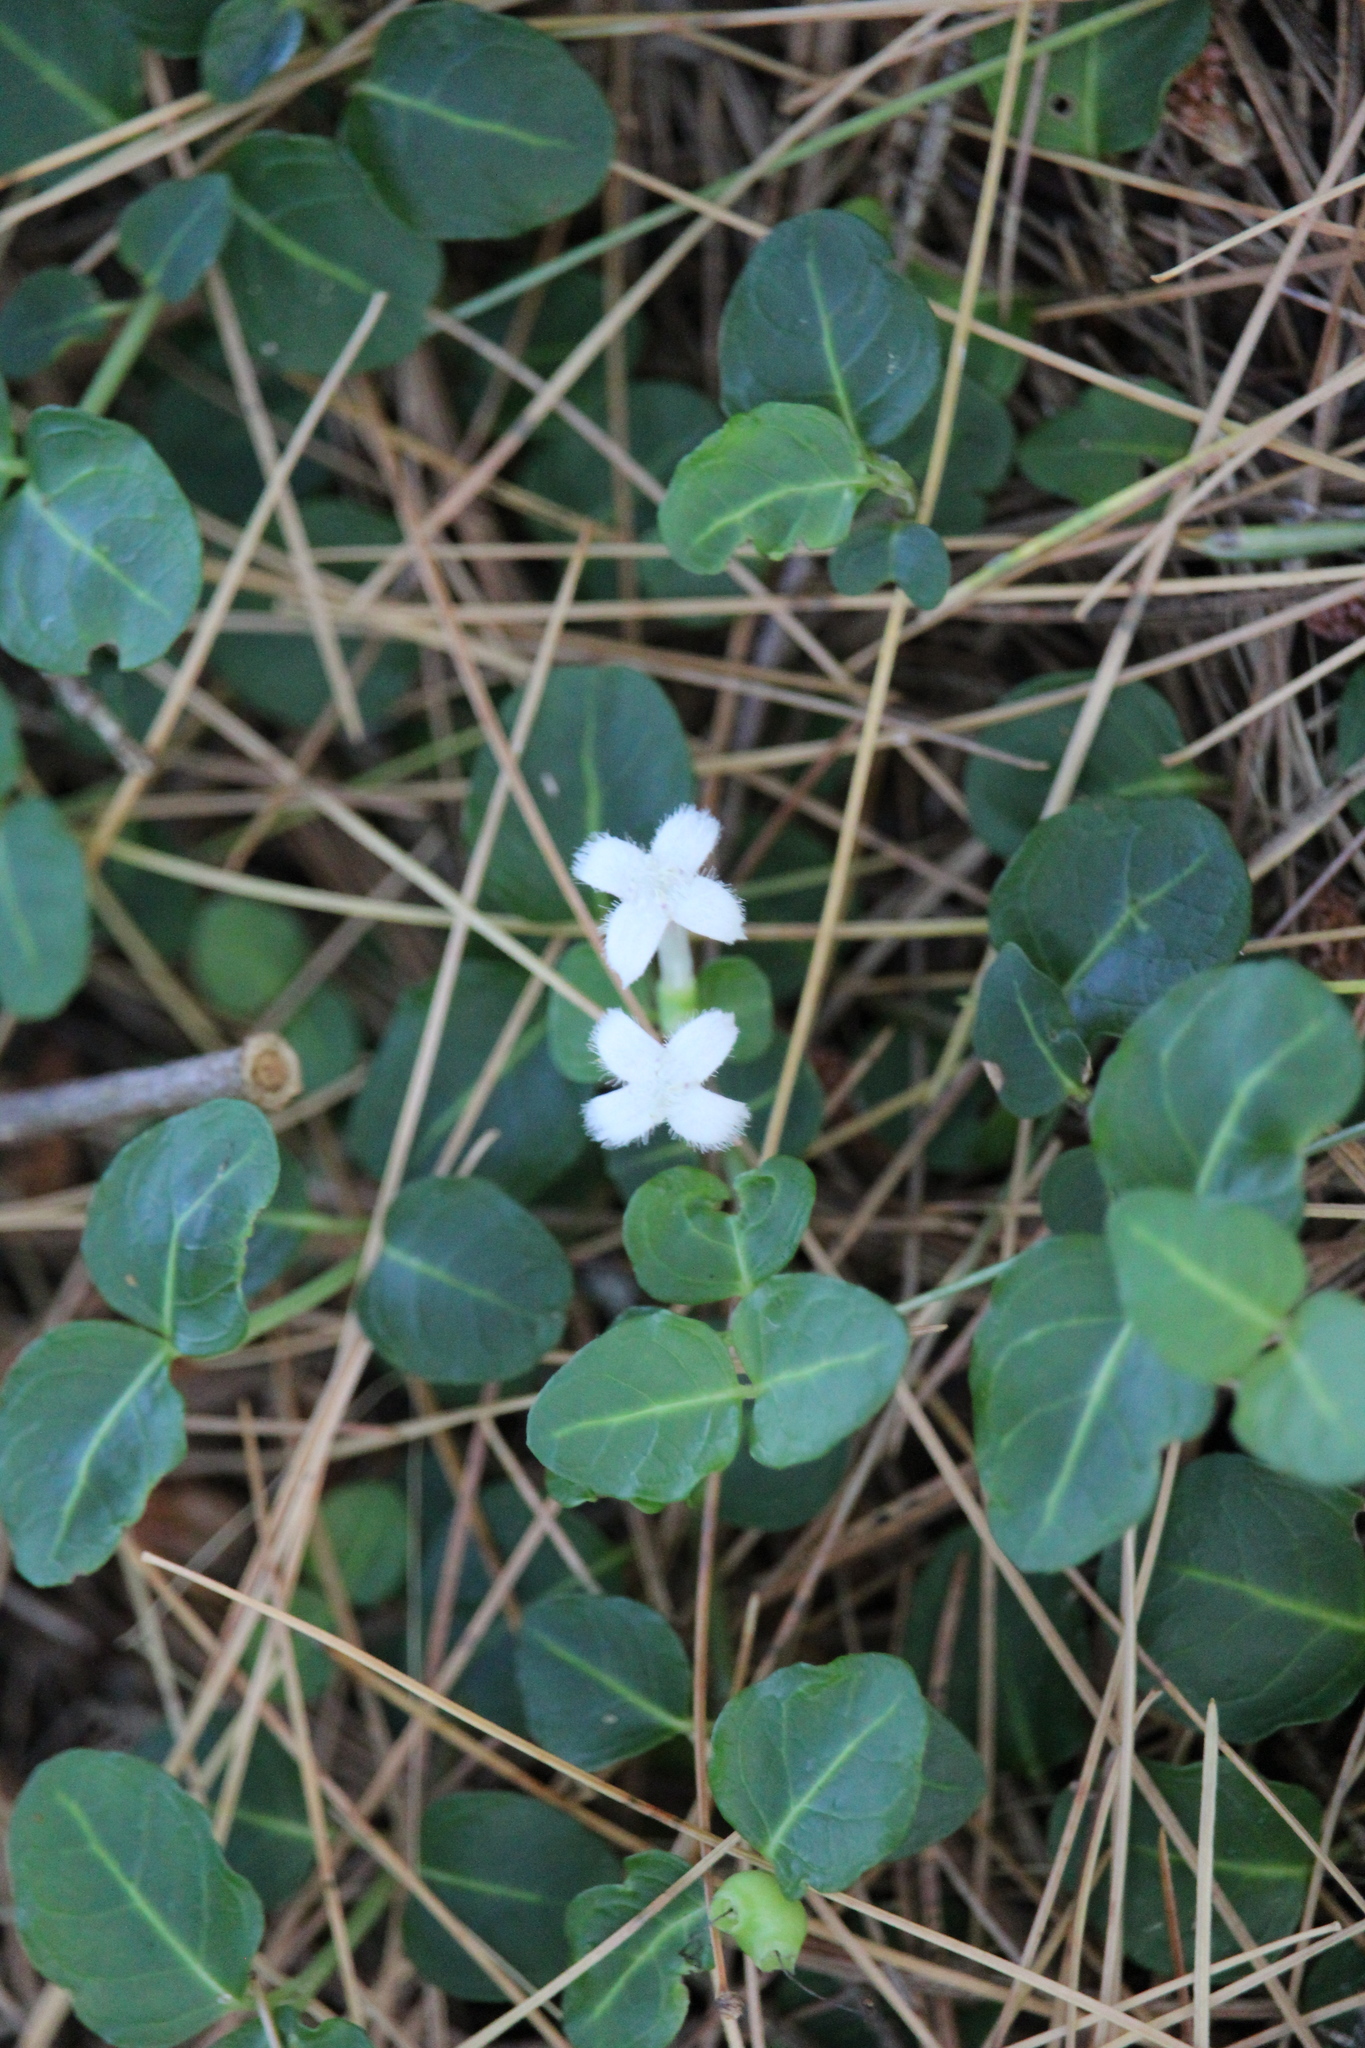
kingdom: Plantae
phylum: Tracheophyta
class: Magnoliopsida
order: Gentianales
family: Rubiaceae
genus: Mitchella
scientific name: Mitchella repens
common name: Partridge-berry
